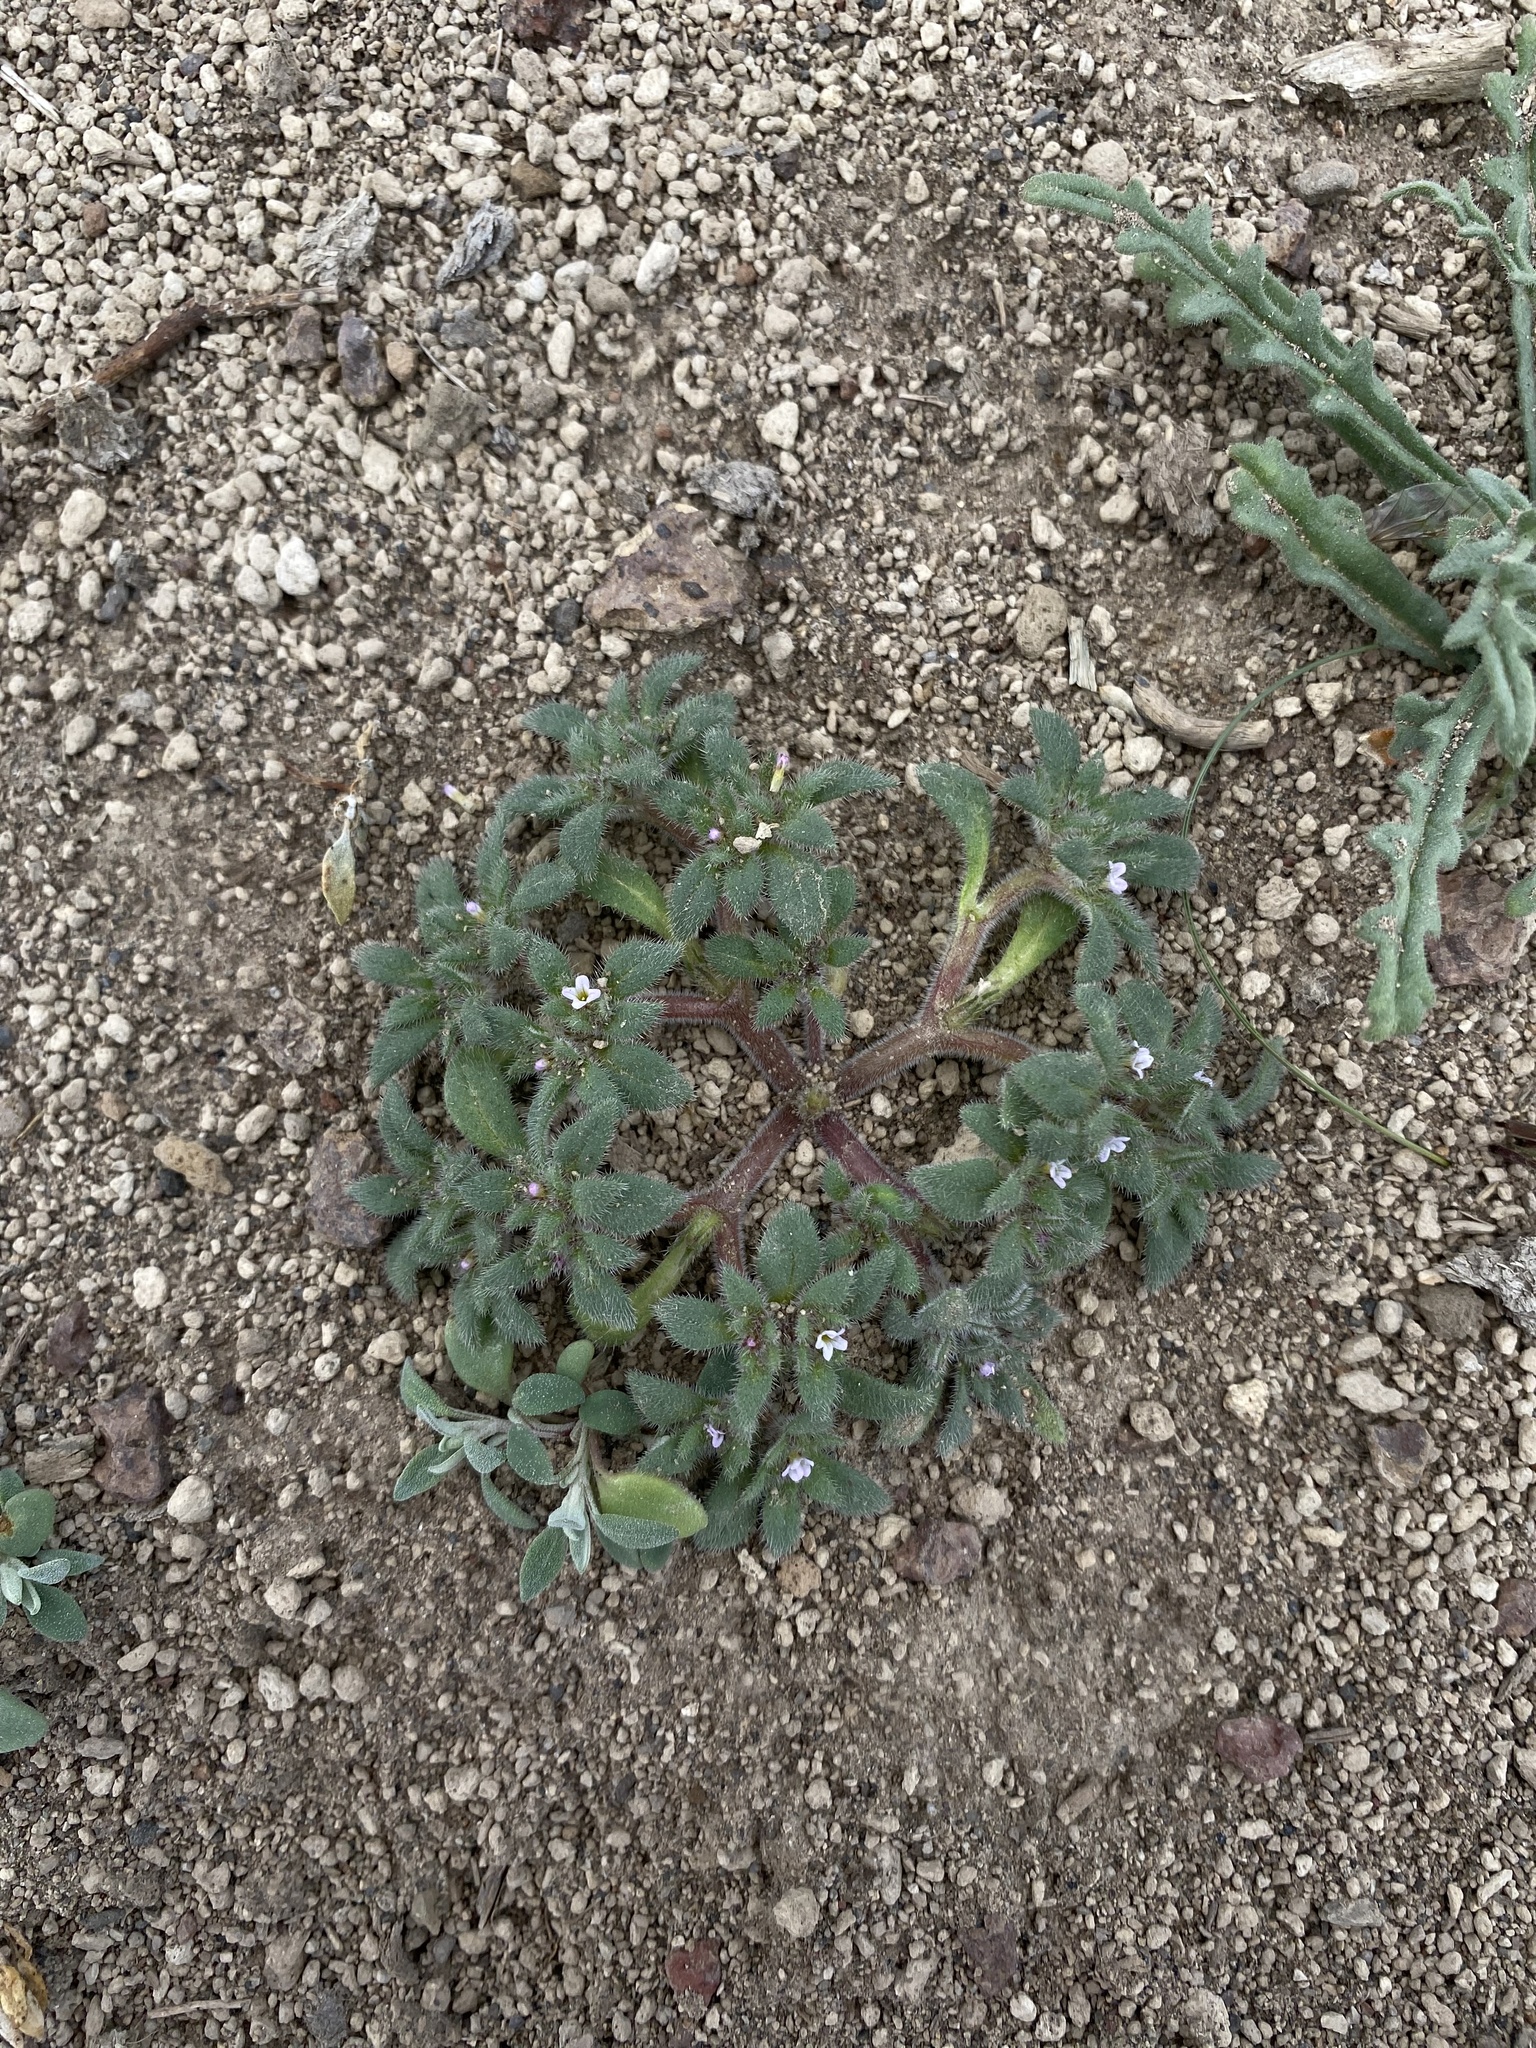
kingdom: Plantae
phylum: Tracheophyta
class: Magnoliopsida
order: Boraginales
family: Namaceae
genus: Nama
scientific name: Nama densa
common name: Leafy nama
